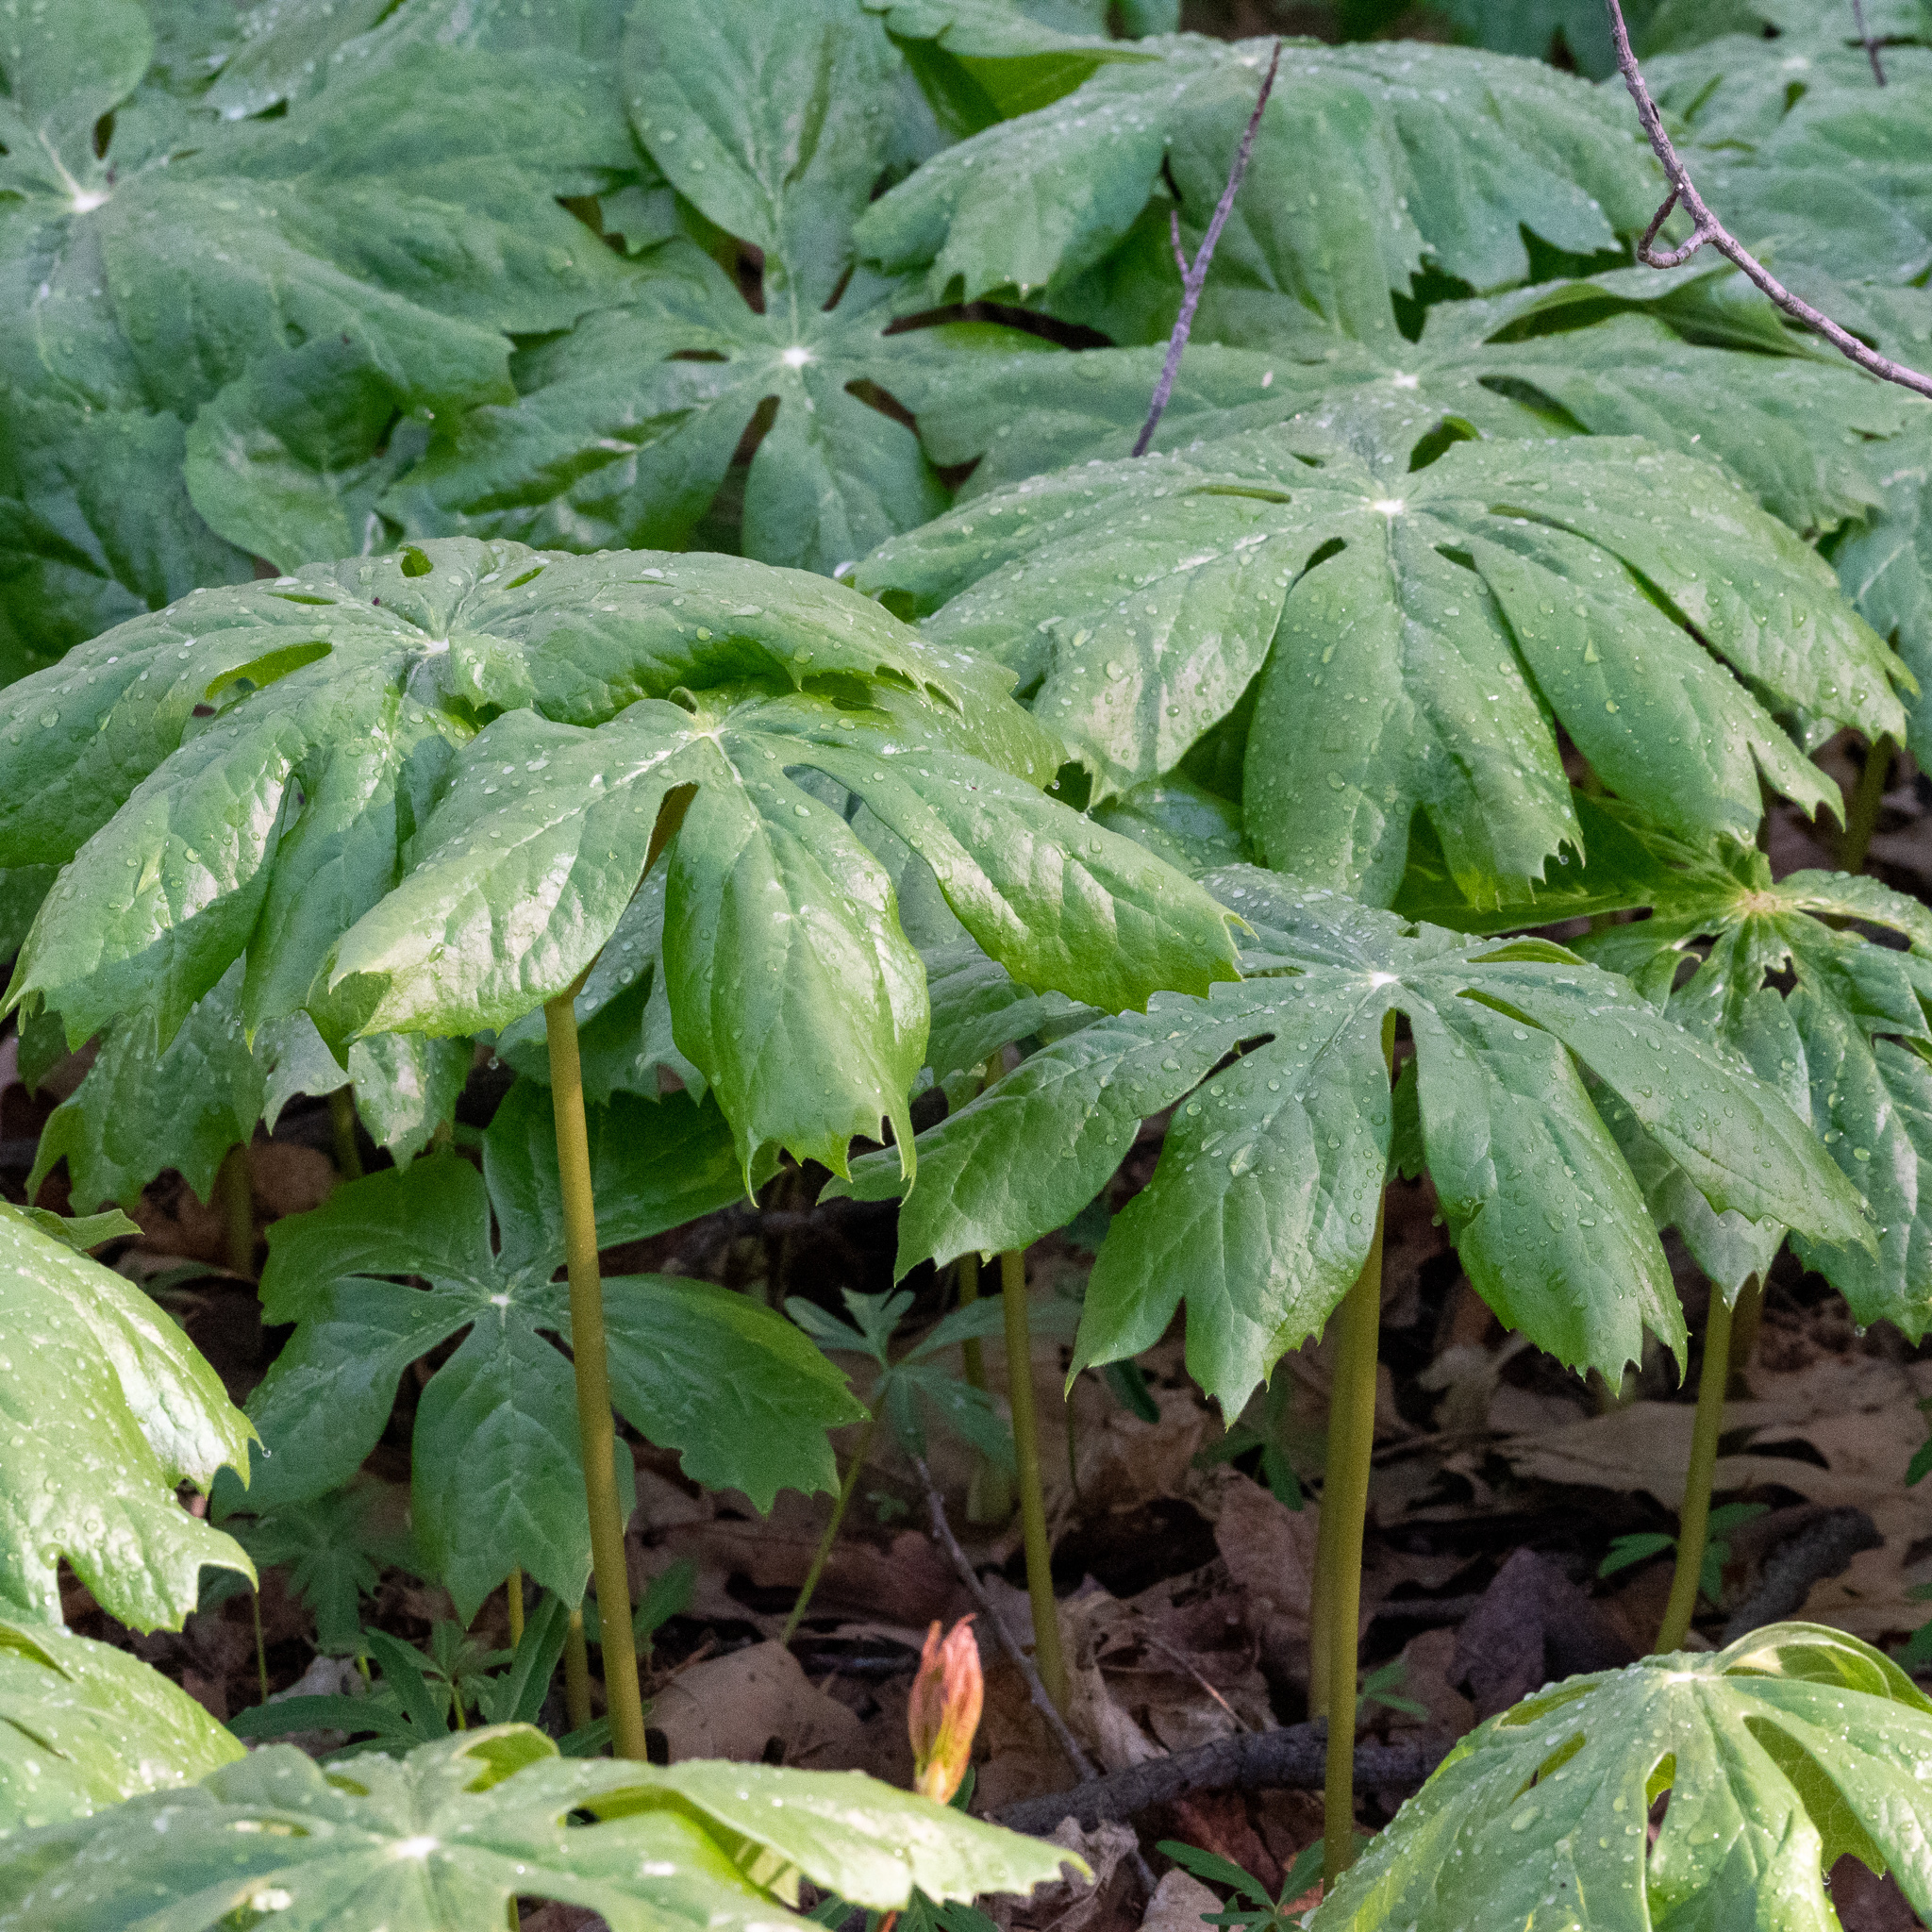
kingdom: Plantae
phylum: Tracheophyta
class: Magnoliopsida
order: Ranunculales
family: Berberidaceae
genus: Podophyllum
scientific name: Podophyllum peltatum
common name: Wild mandrake
